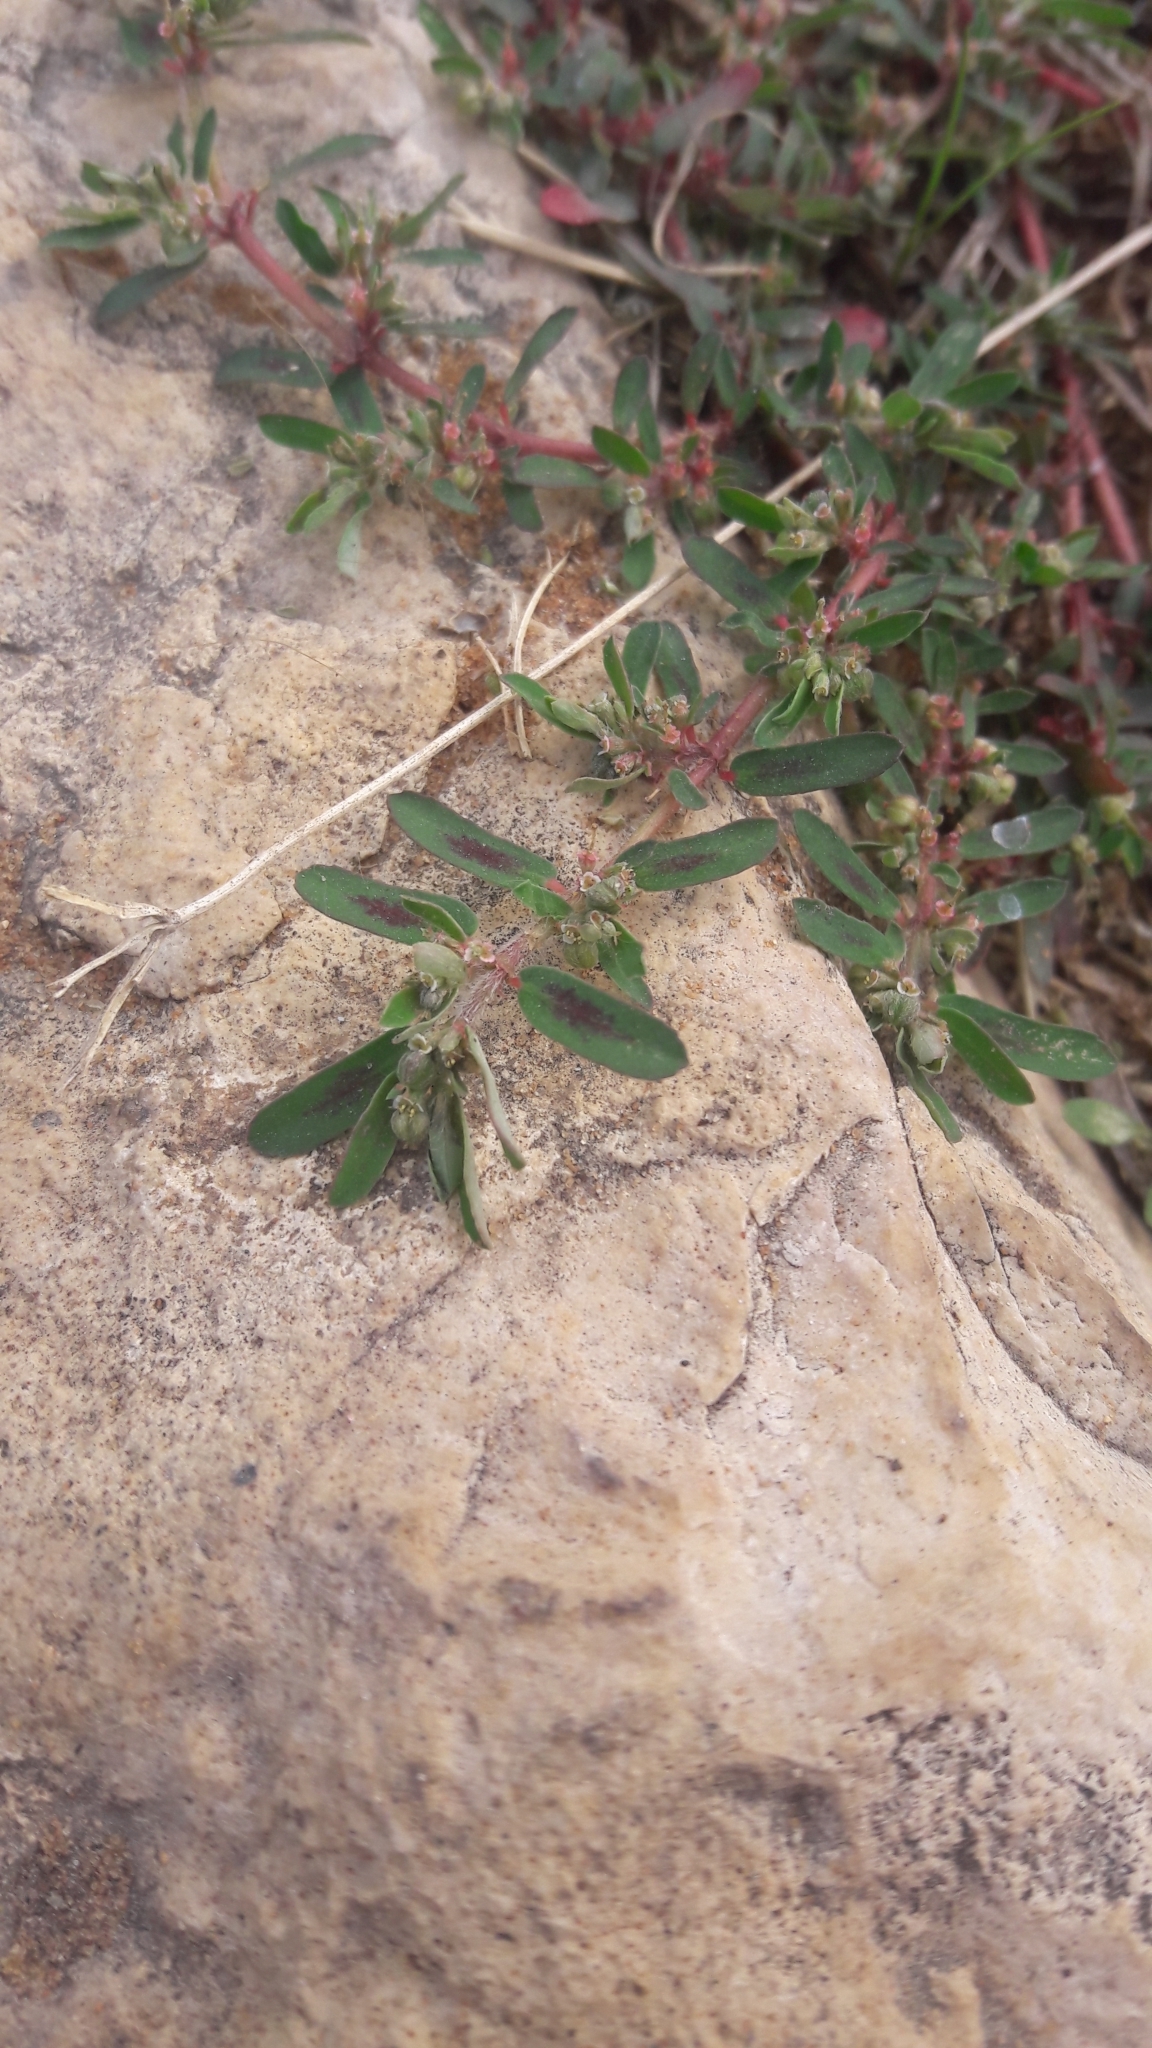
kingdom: Plantae
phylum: Tracheophyta
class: Magnoliopsida
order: Malpighiales
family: Euphorbiaceae
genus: Euphorbia
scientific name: Euphorbia maculata
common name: Spotted spurge
